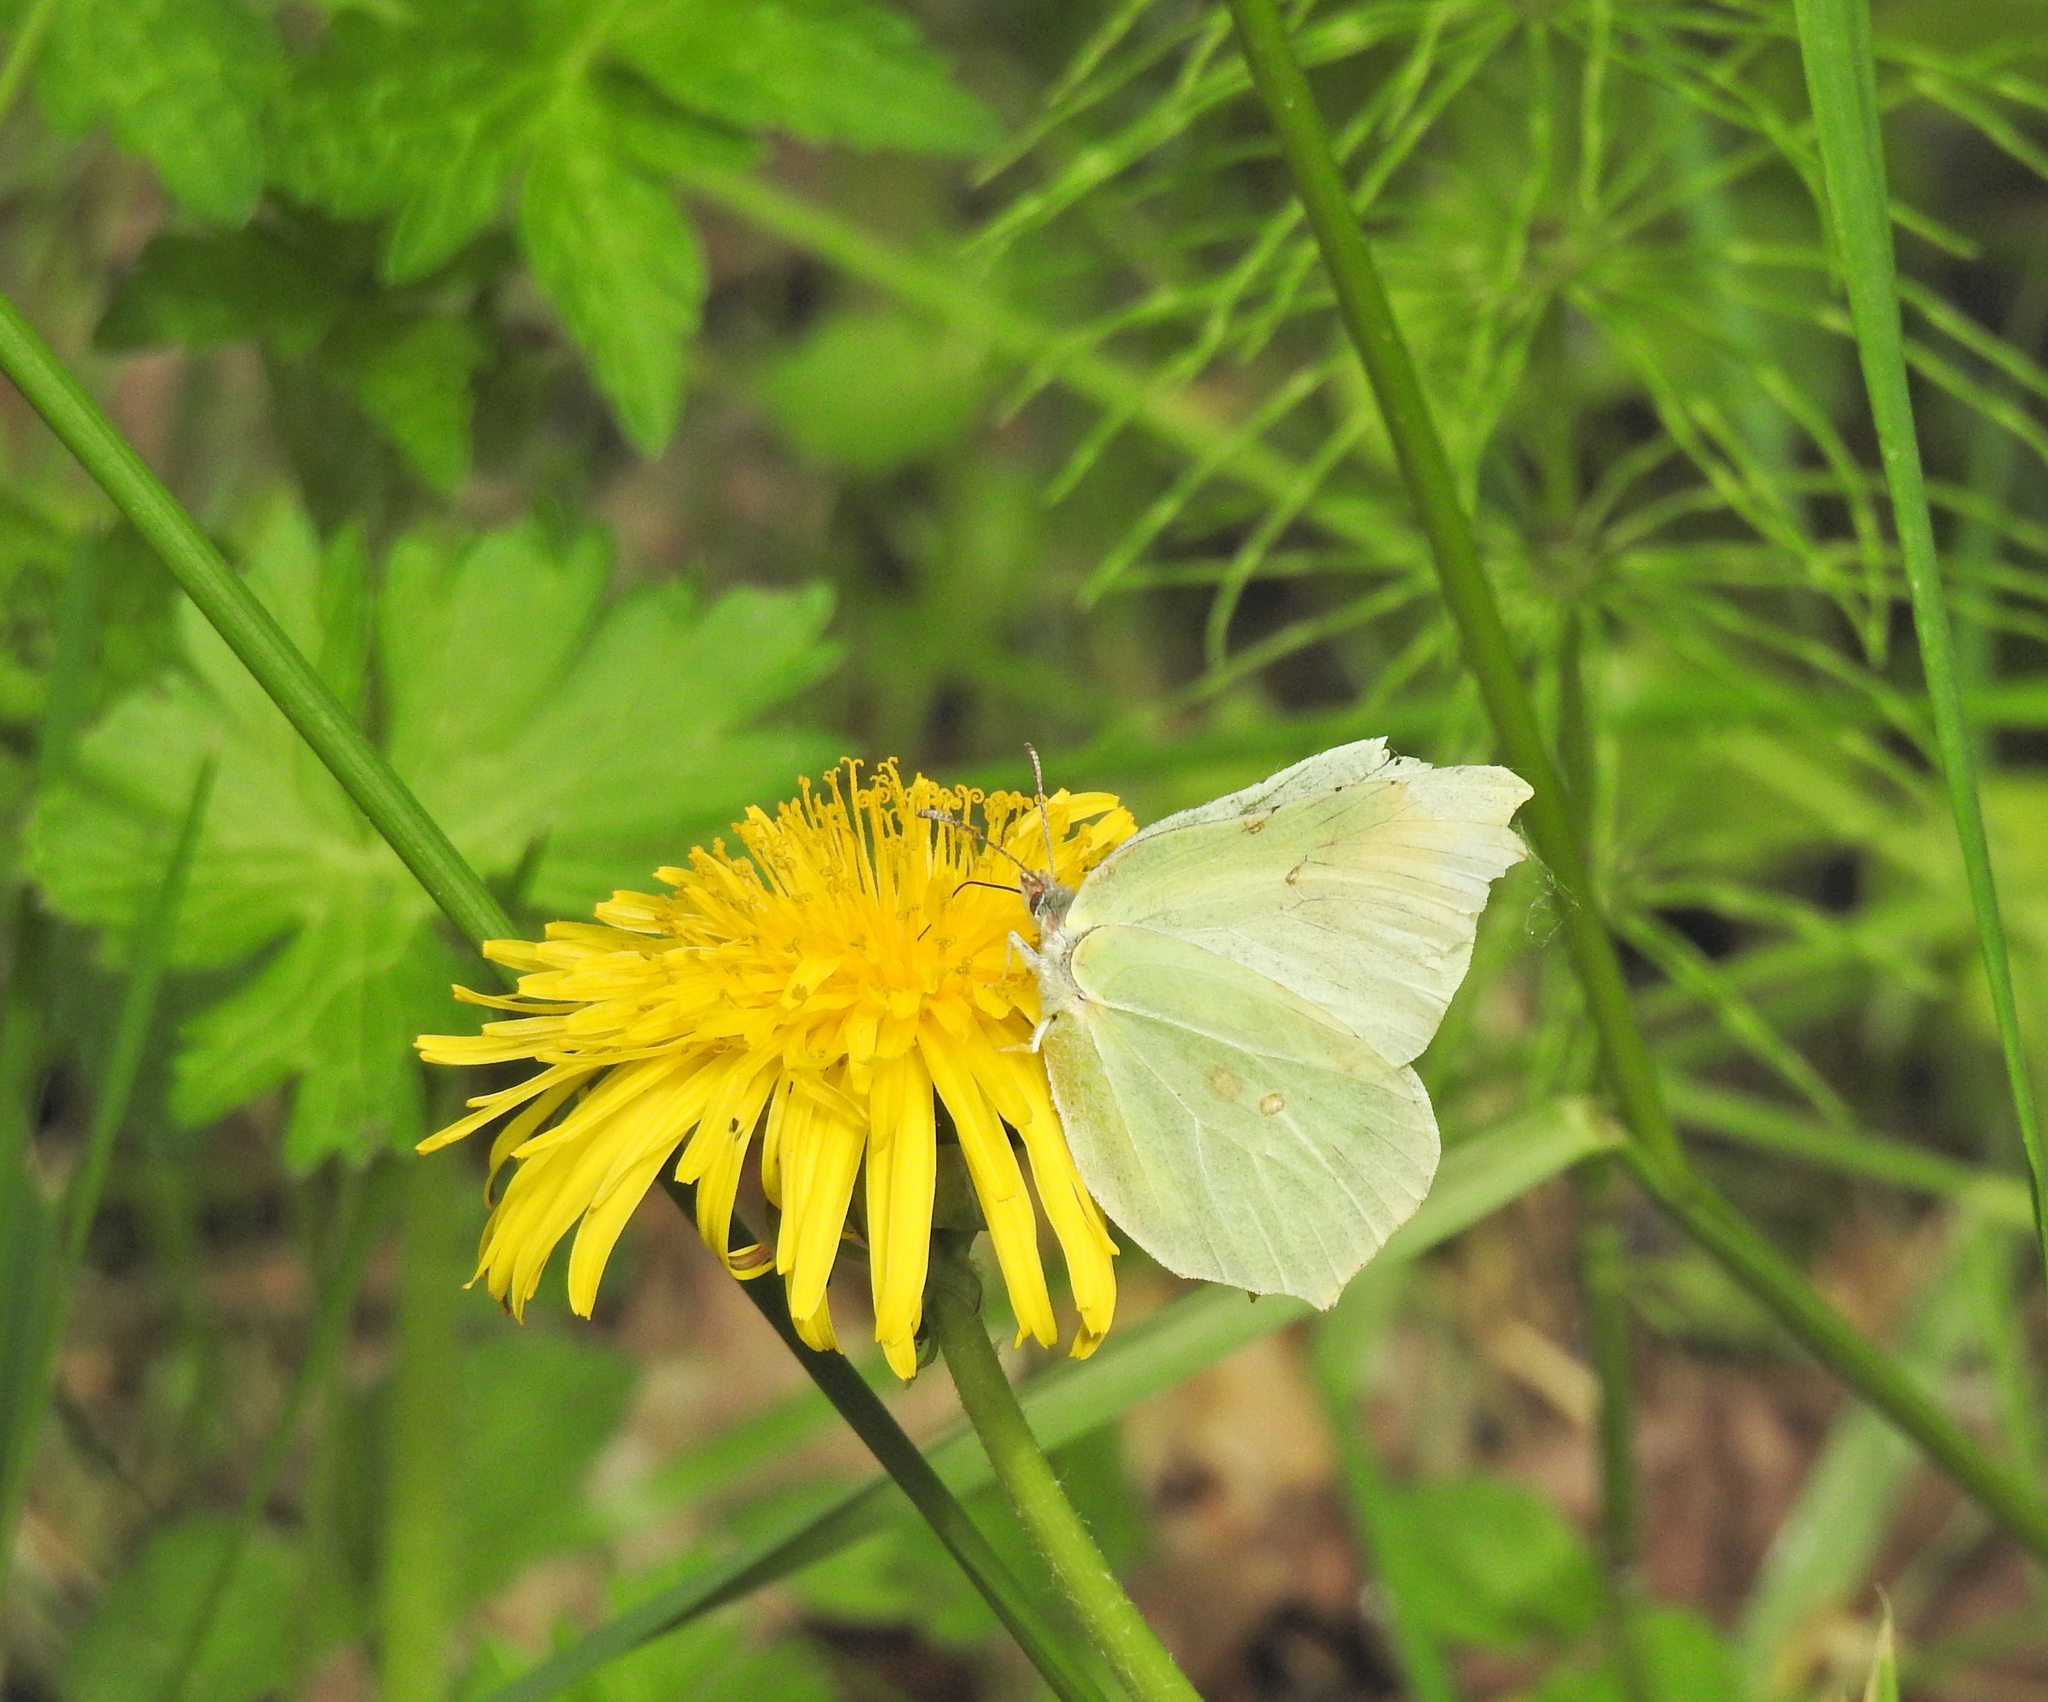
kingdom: Animalia
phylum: Arthropoda
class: Insecta
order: Lepidoptera
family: Pieridae
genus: Gonepteryx
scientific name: Gonepteryx rhamni
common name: Brimstone
